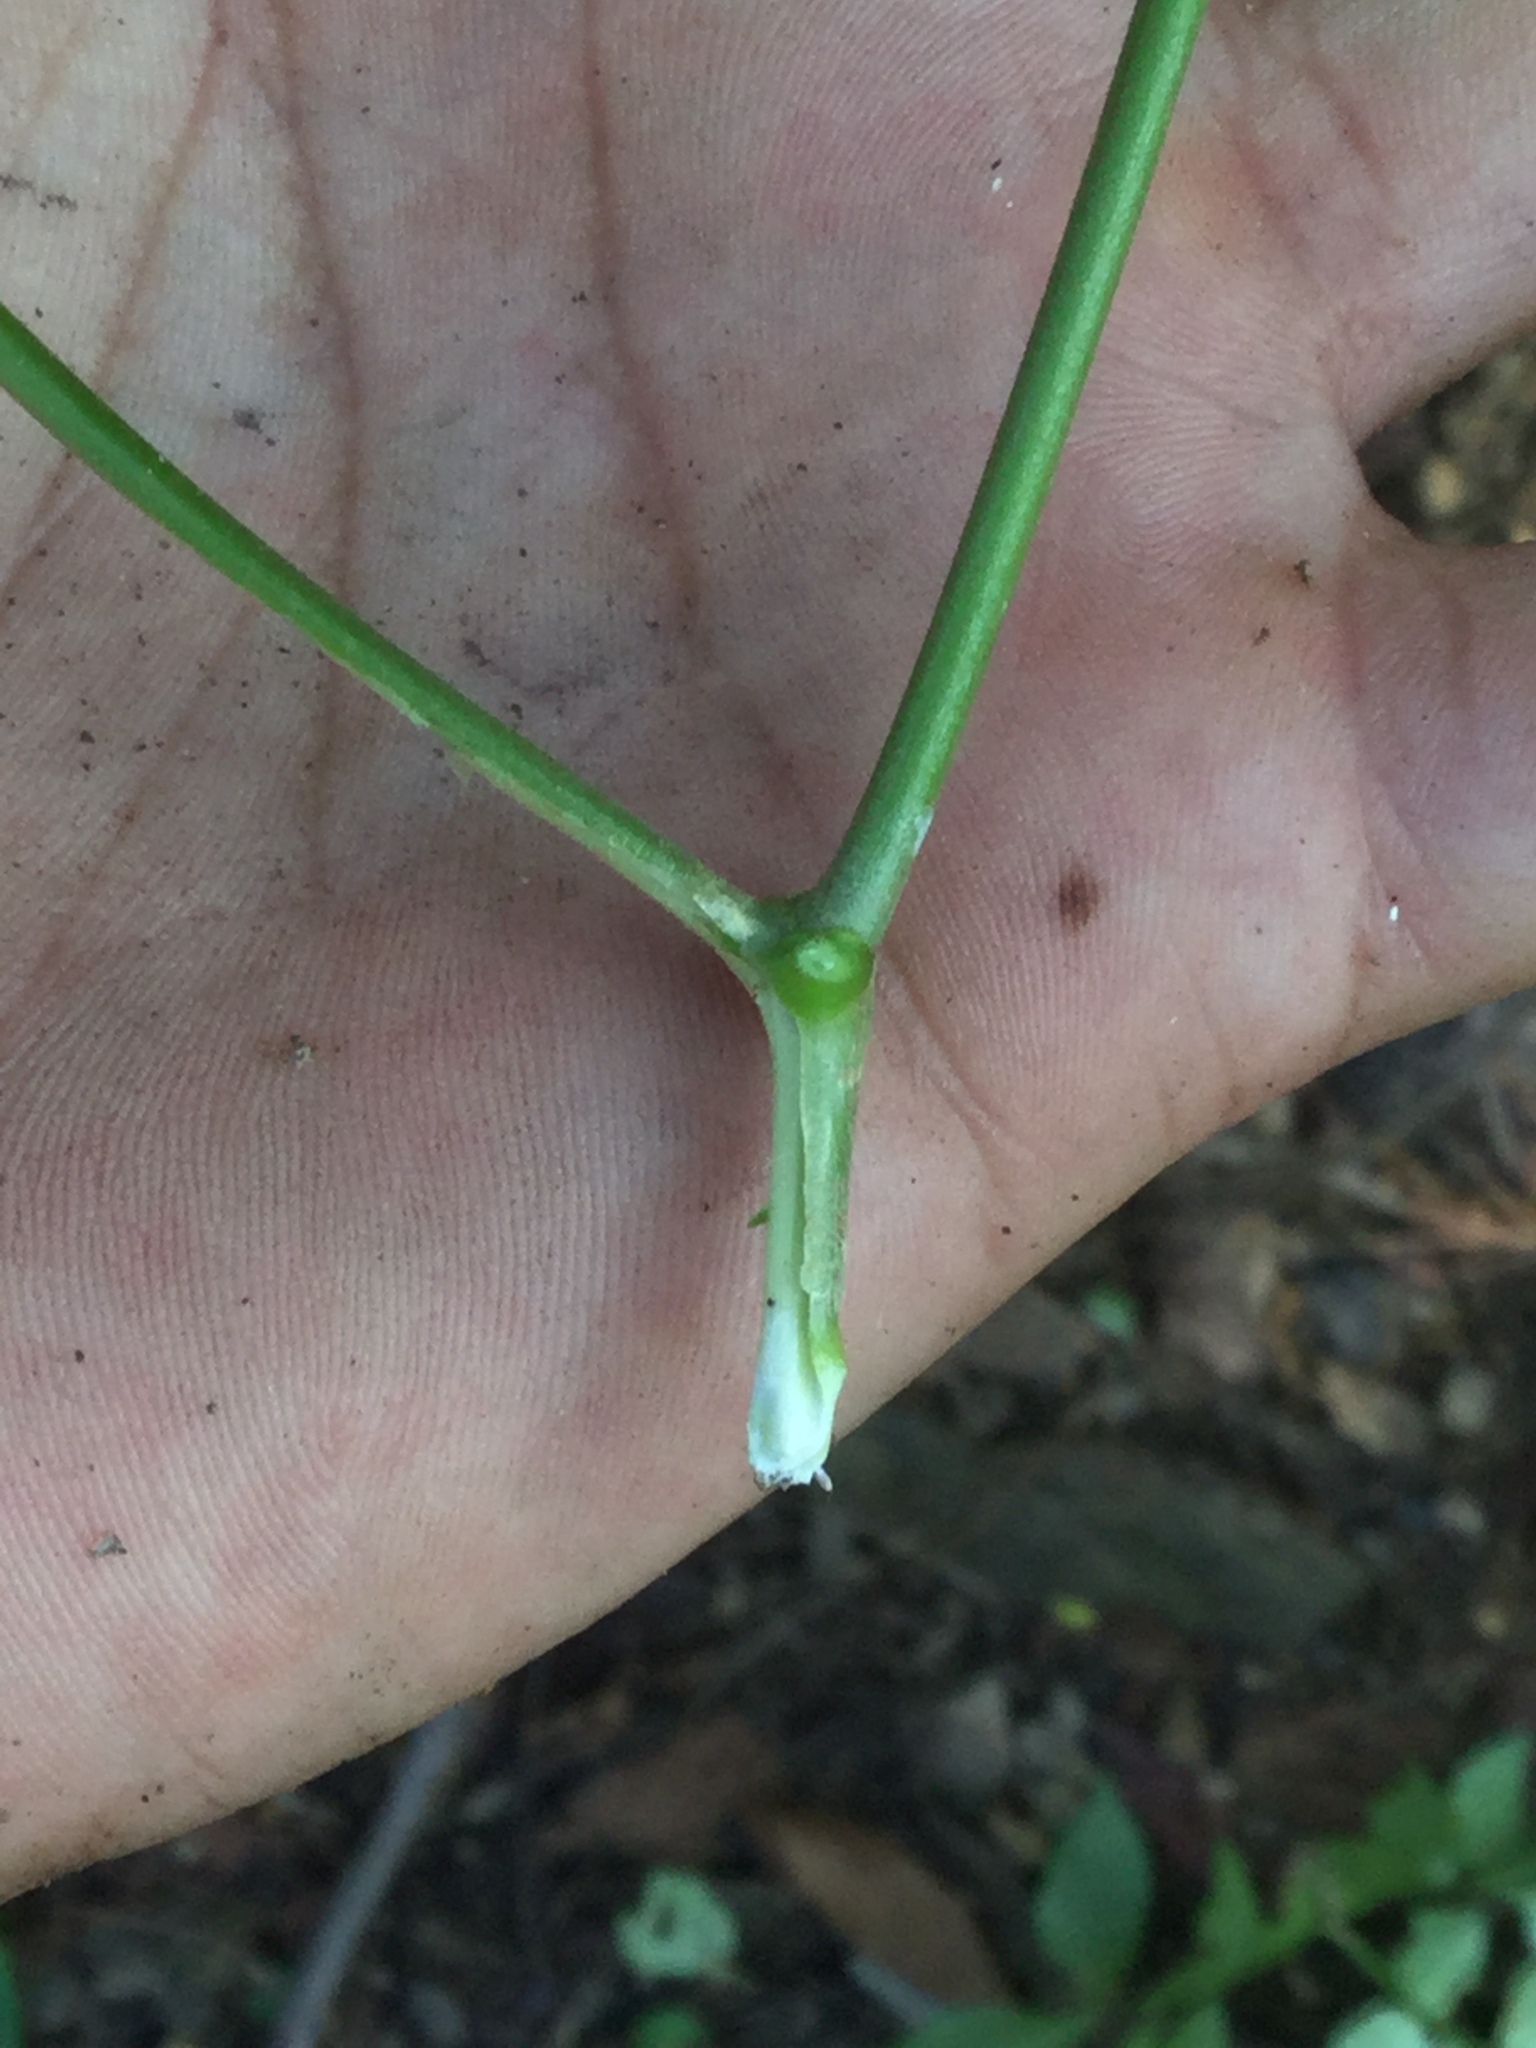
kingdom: Plantae
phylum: Tracheophyta
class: Magnoliopsida
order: Gentianales
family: Apocynaceae
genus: Tabernaemontana
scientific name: Tabernaemontana glabra
